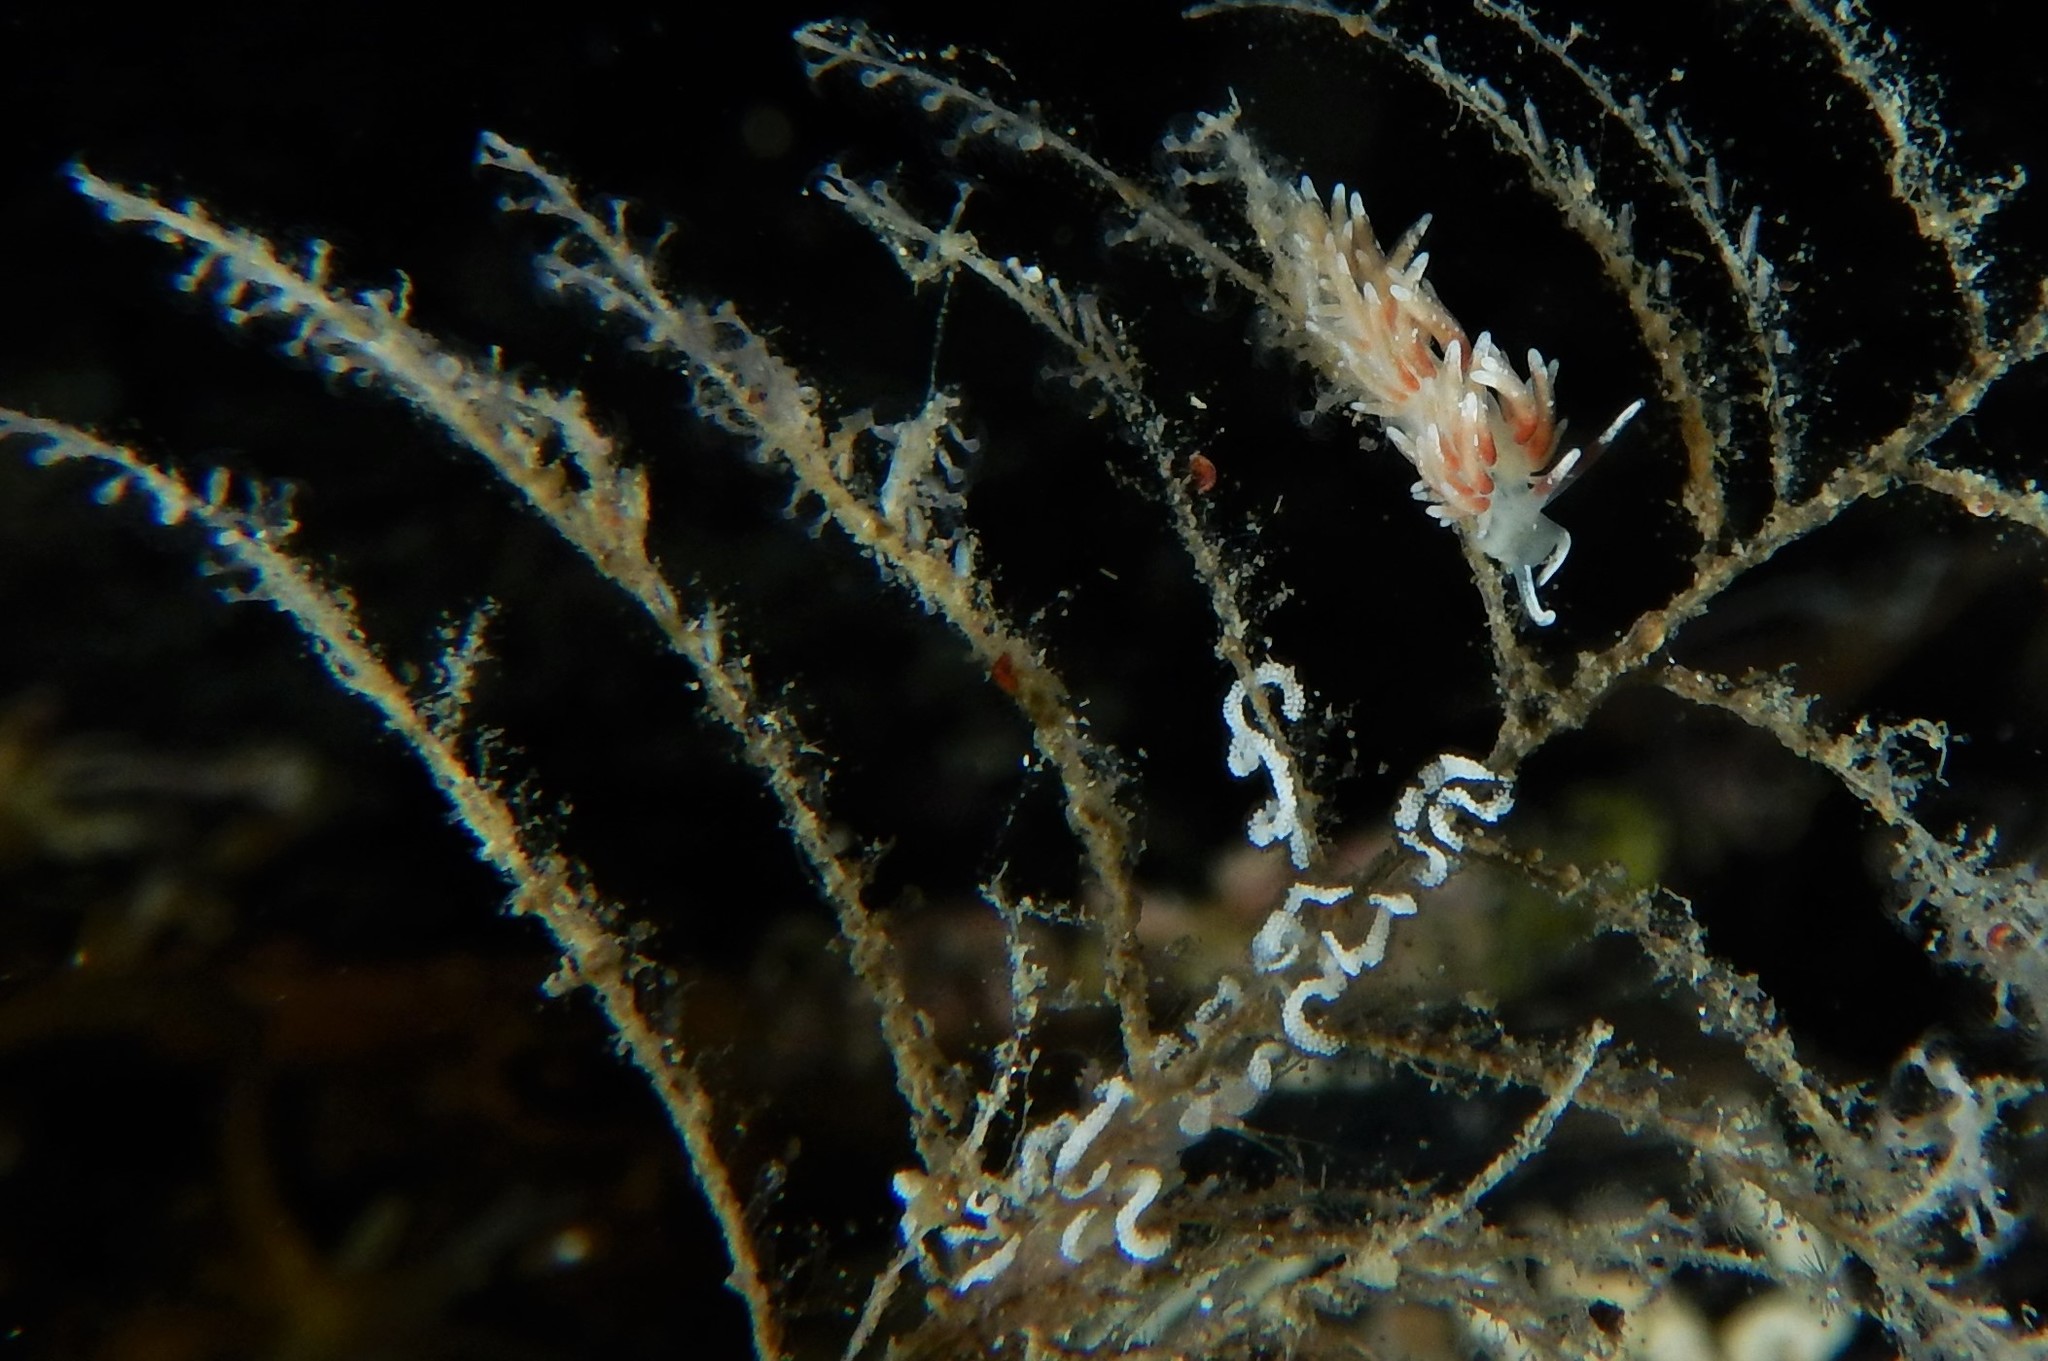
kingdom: Animalia
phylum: Mollusca
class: Gastropoda
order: Nudibranchia
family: Trinchesiidae
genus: Rubramoena
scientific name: Rubramoena rubescens
